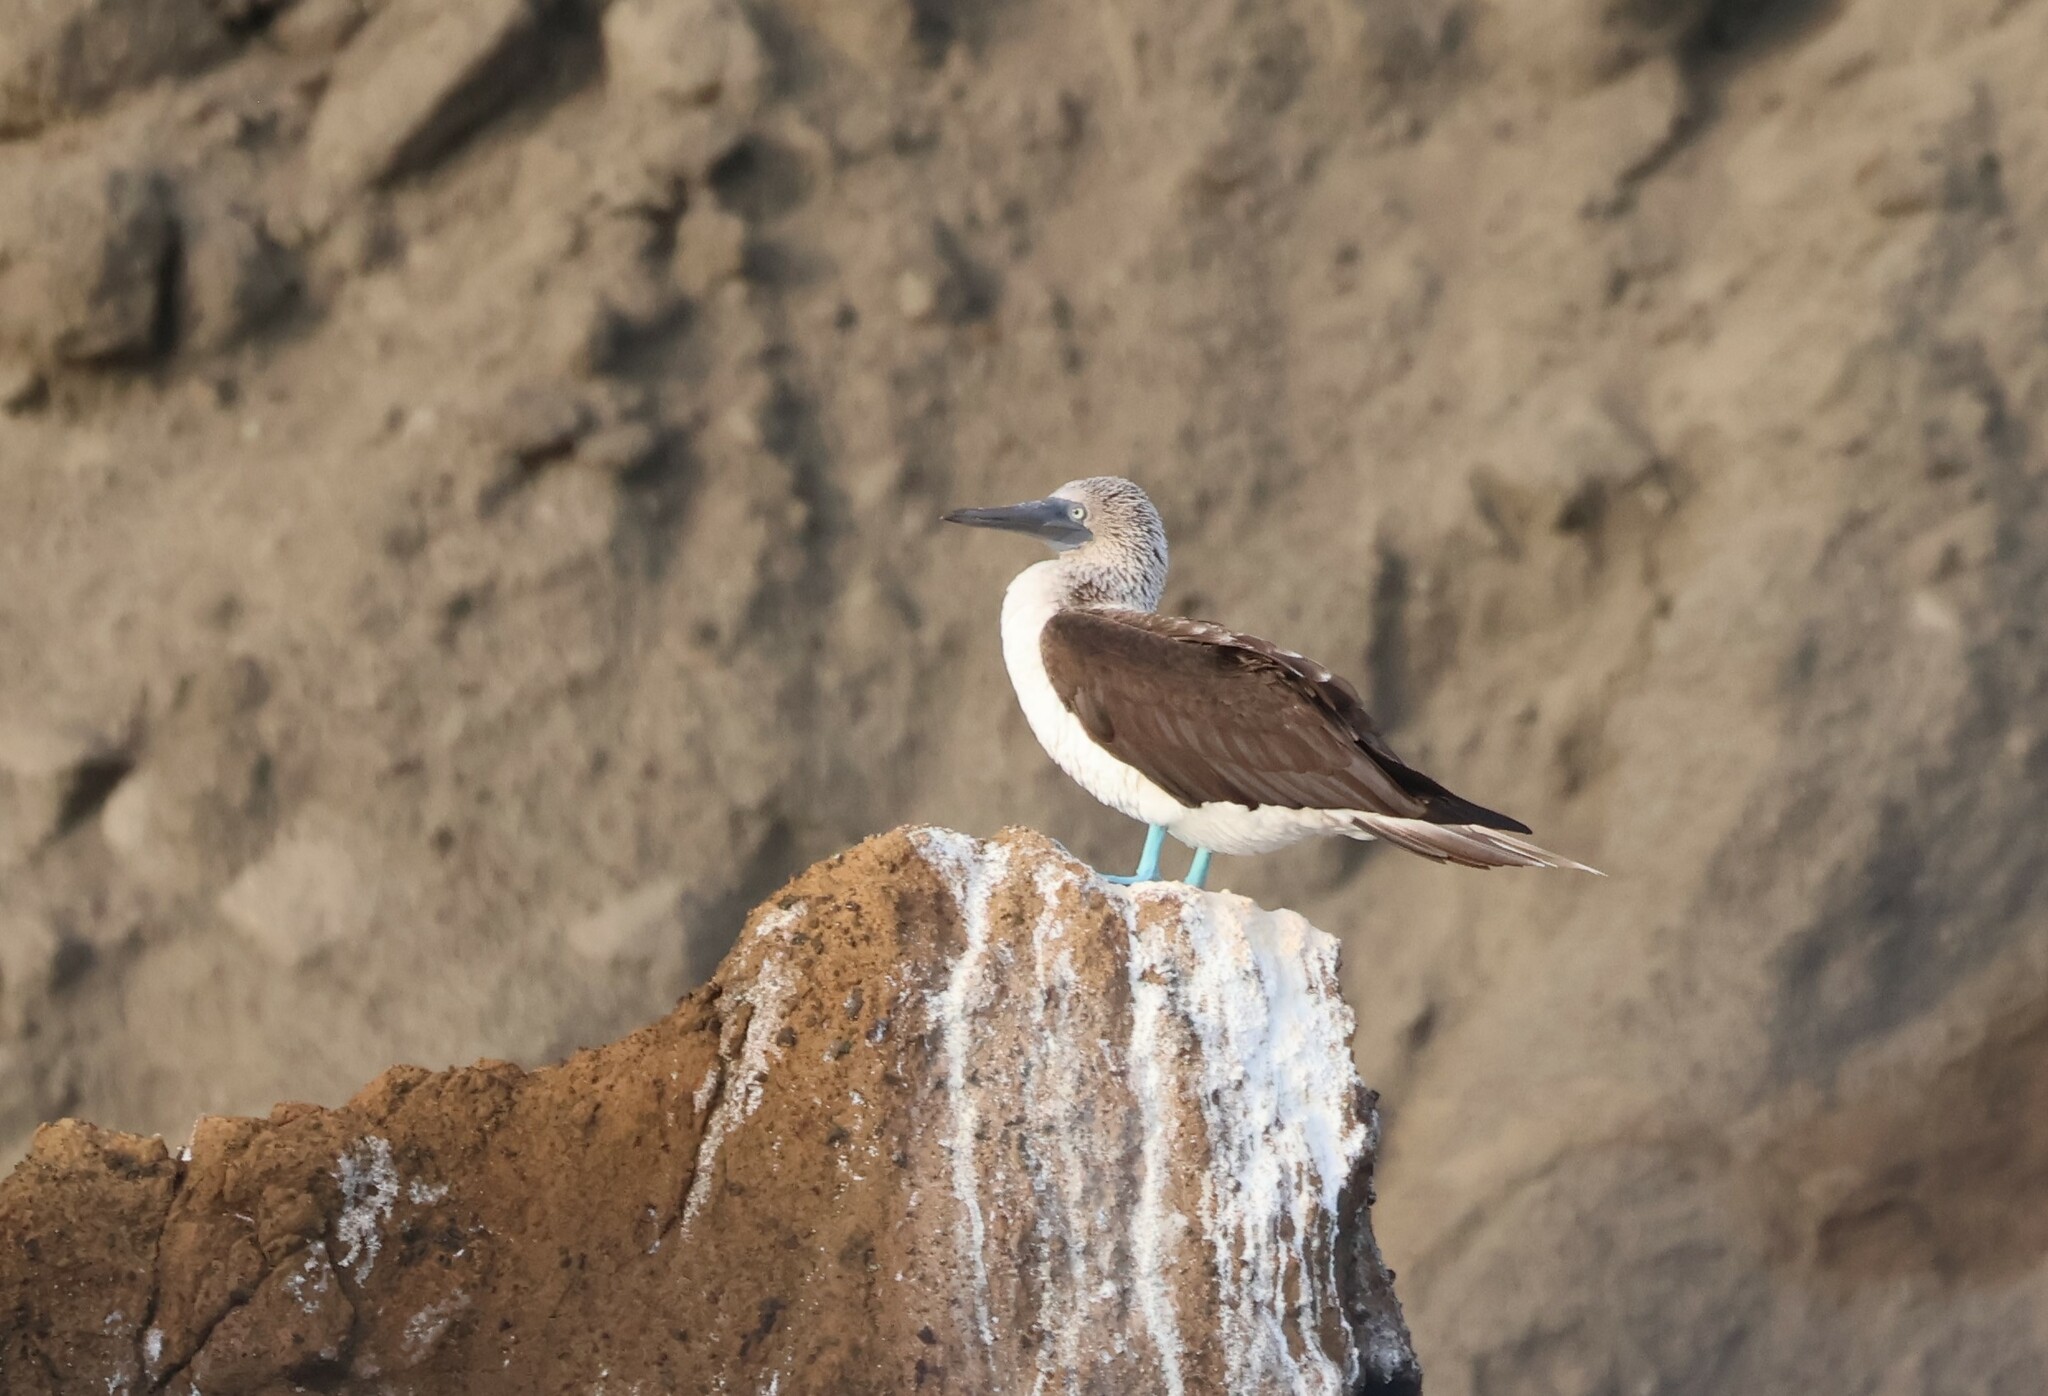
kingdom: Animalia
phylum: Chordata
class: Aves
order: Suliformes
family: Sulidae
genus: Sula
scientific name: Sula nebouxii
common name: Blue-footed booby
